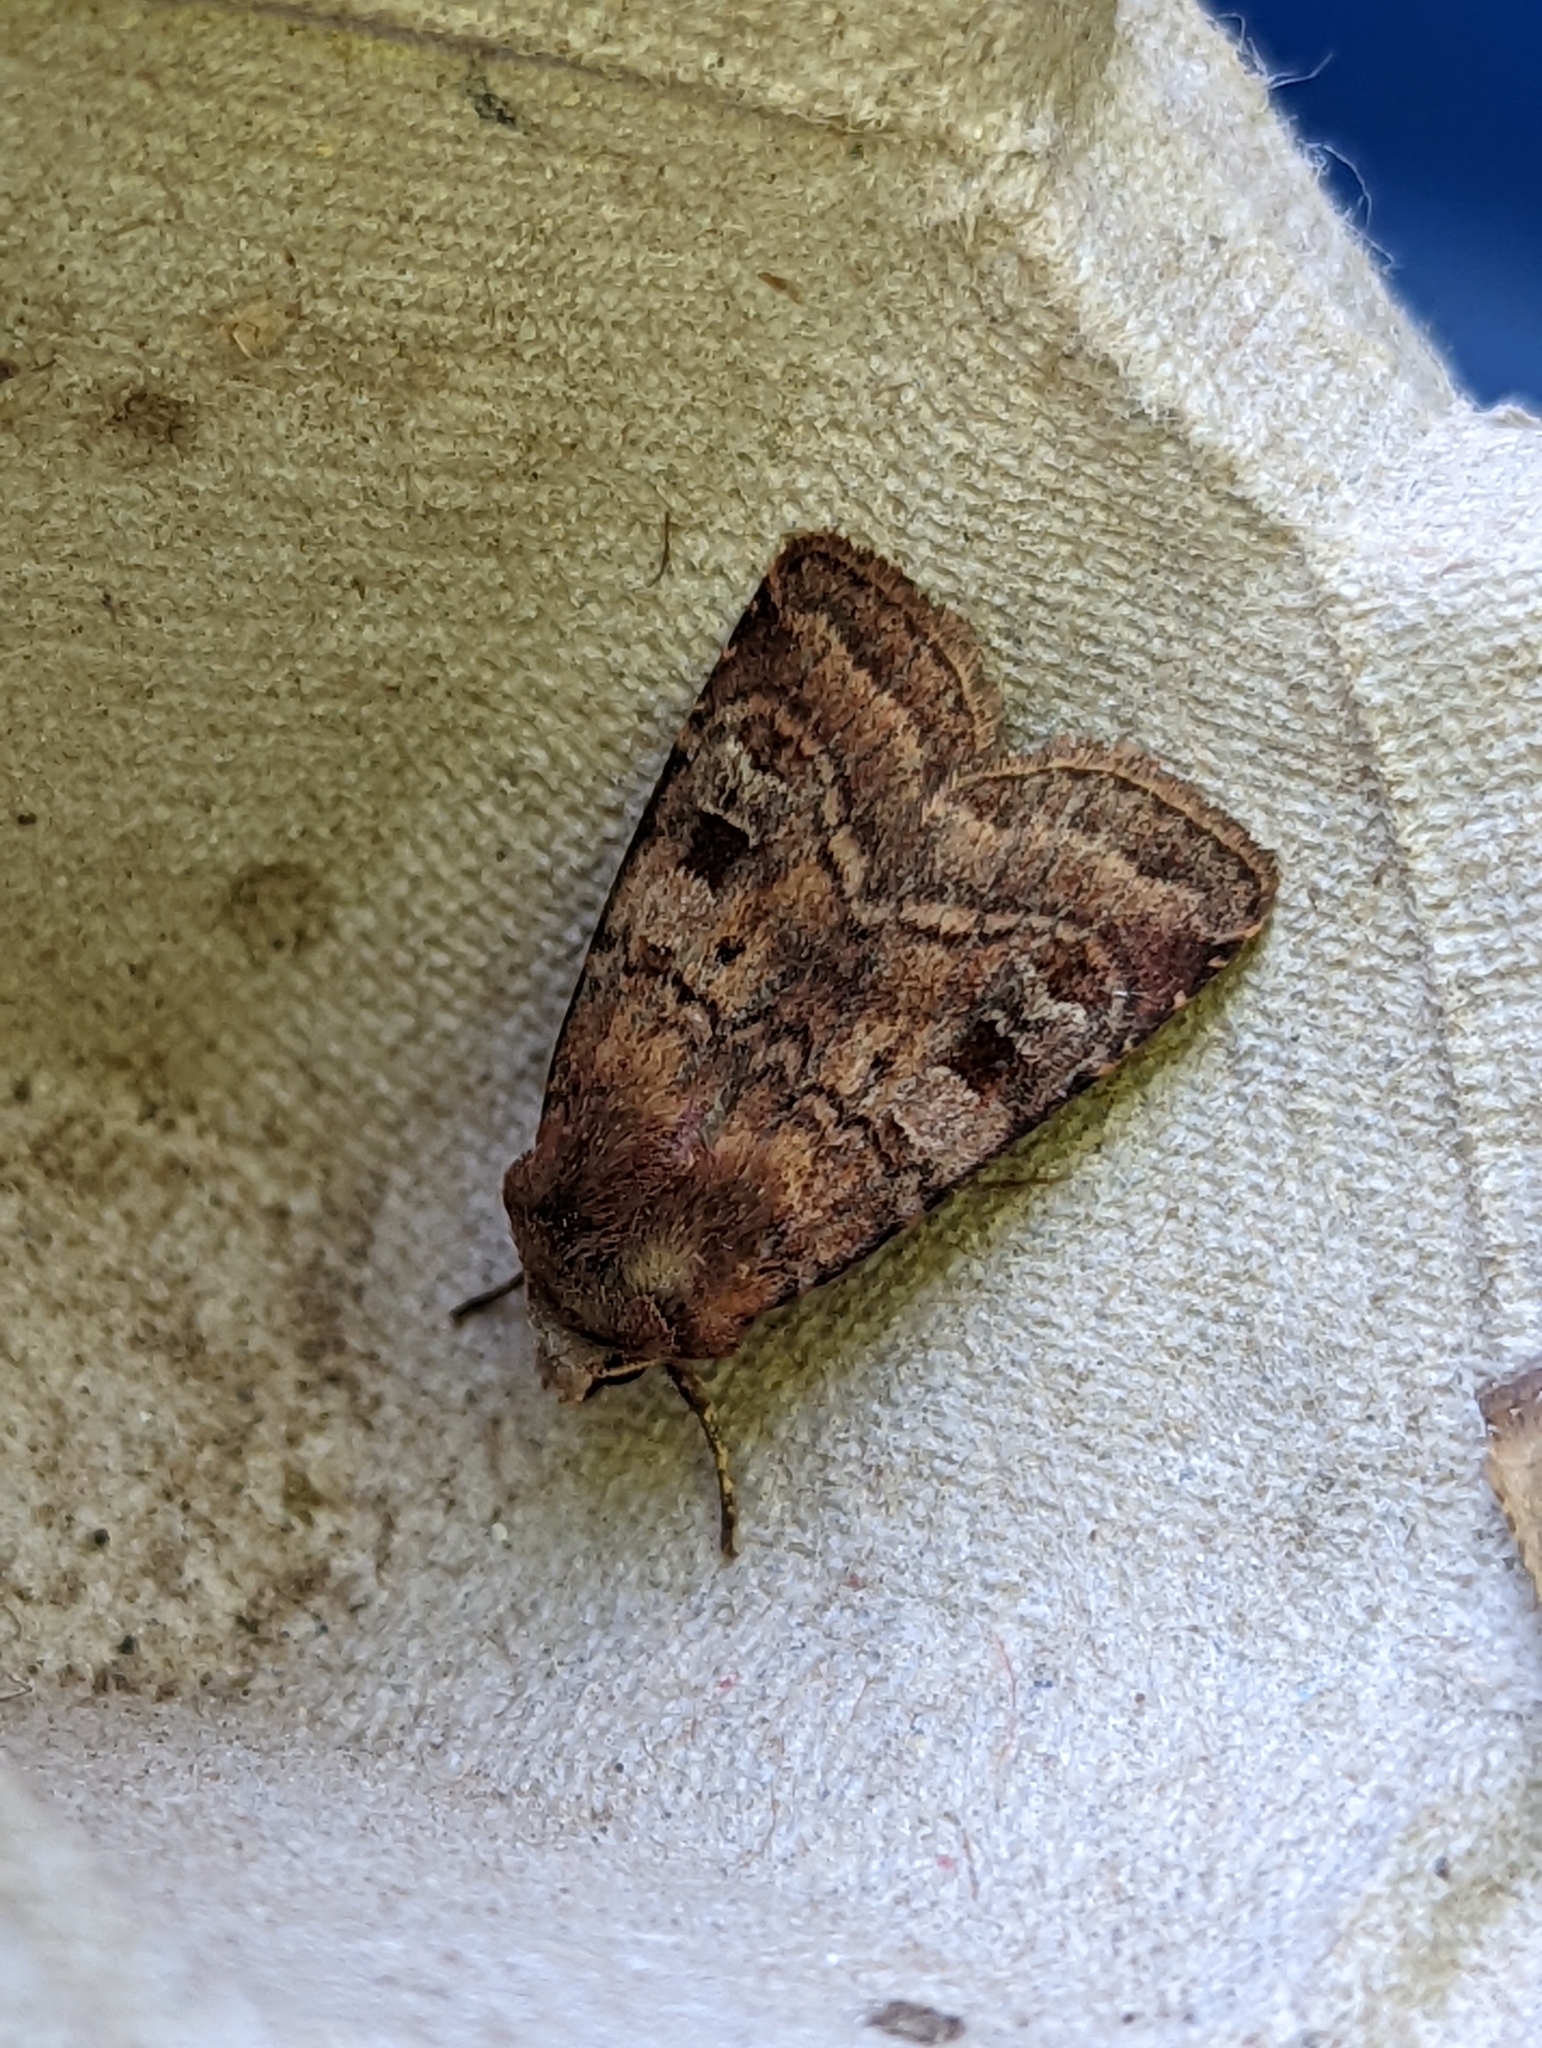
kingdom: Animalia
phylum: Arthropoda
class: Insecta
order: Lepidoptera
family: Noctuidae
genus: Diarsia
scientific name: Diarsia rubi
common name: Small square-spot
